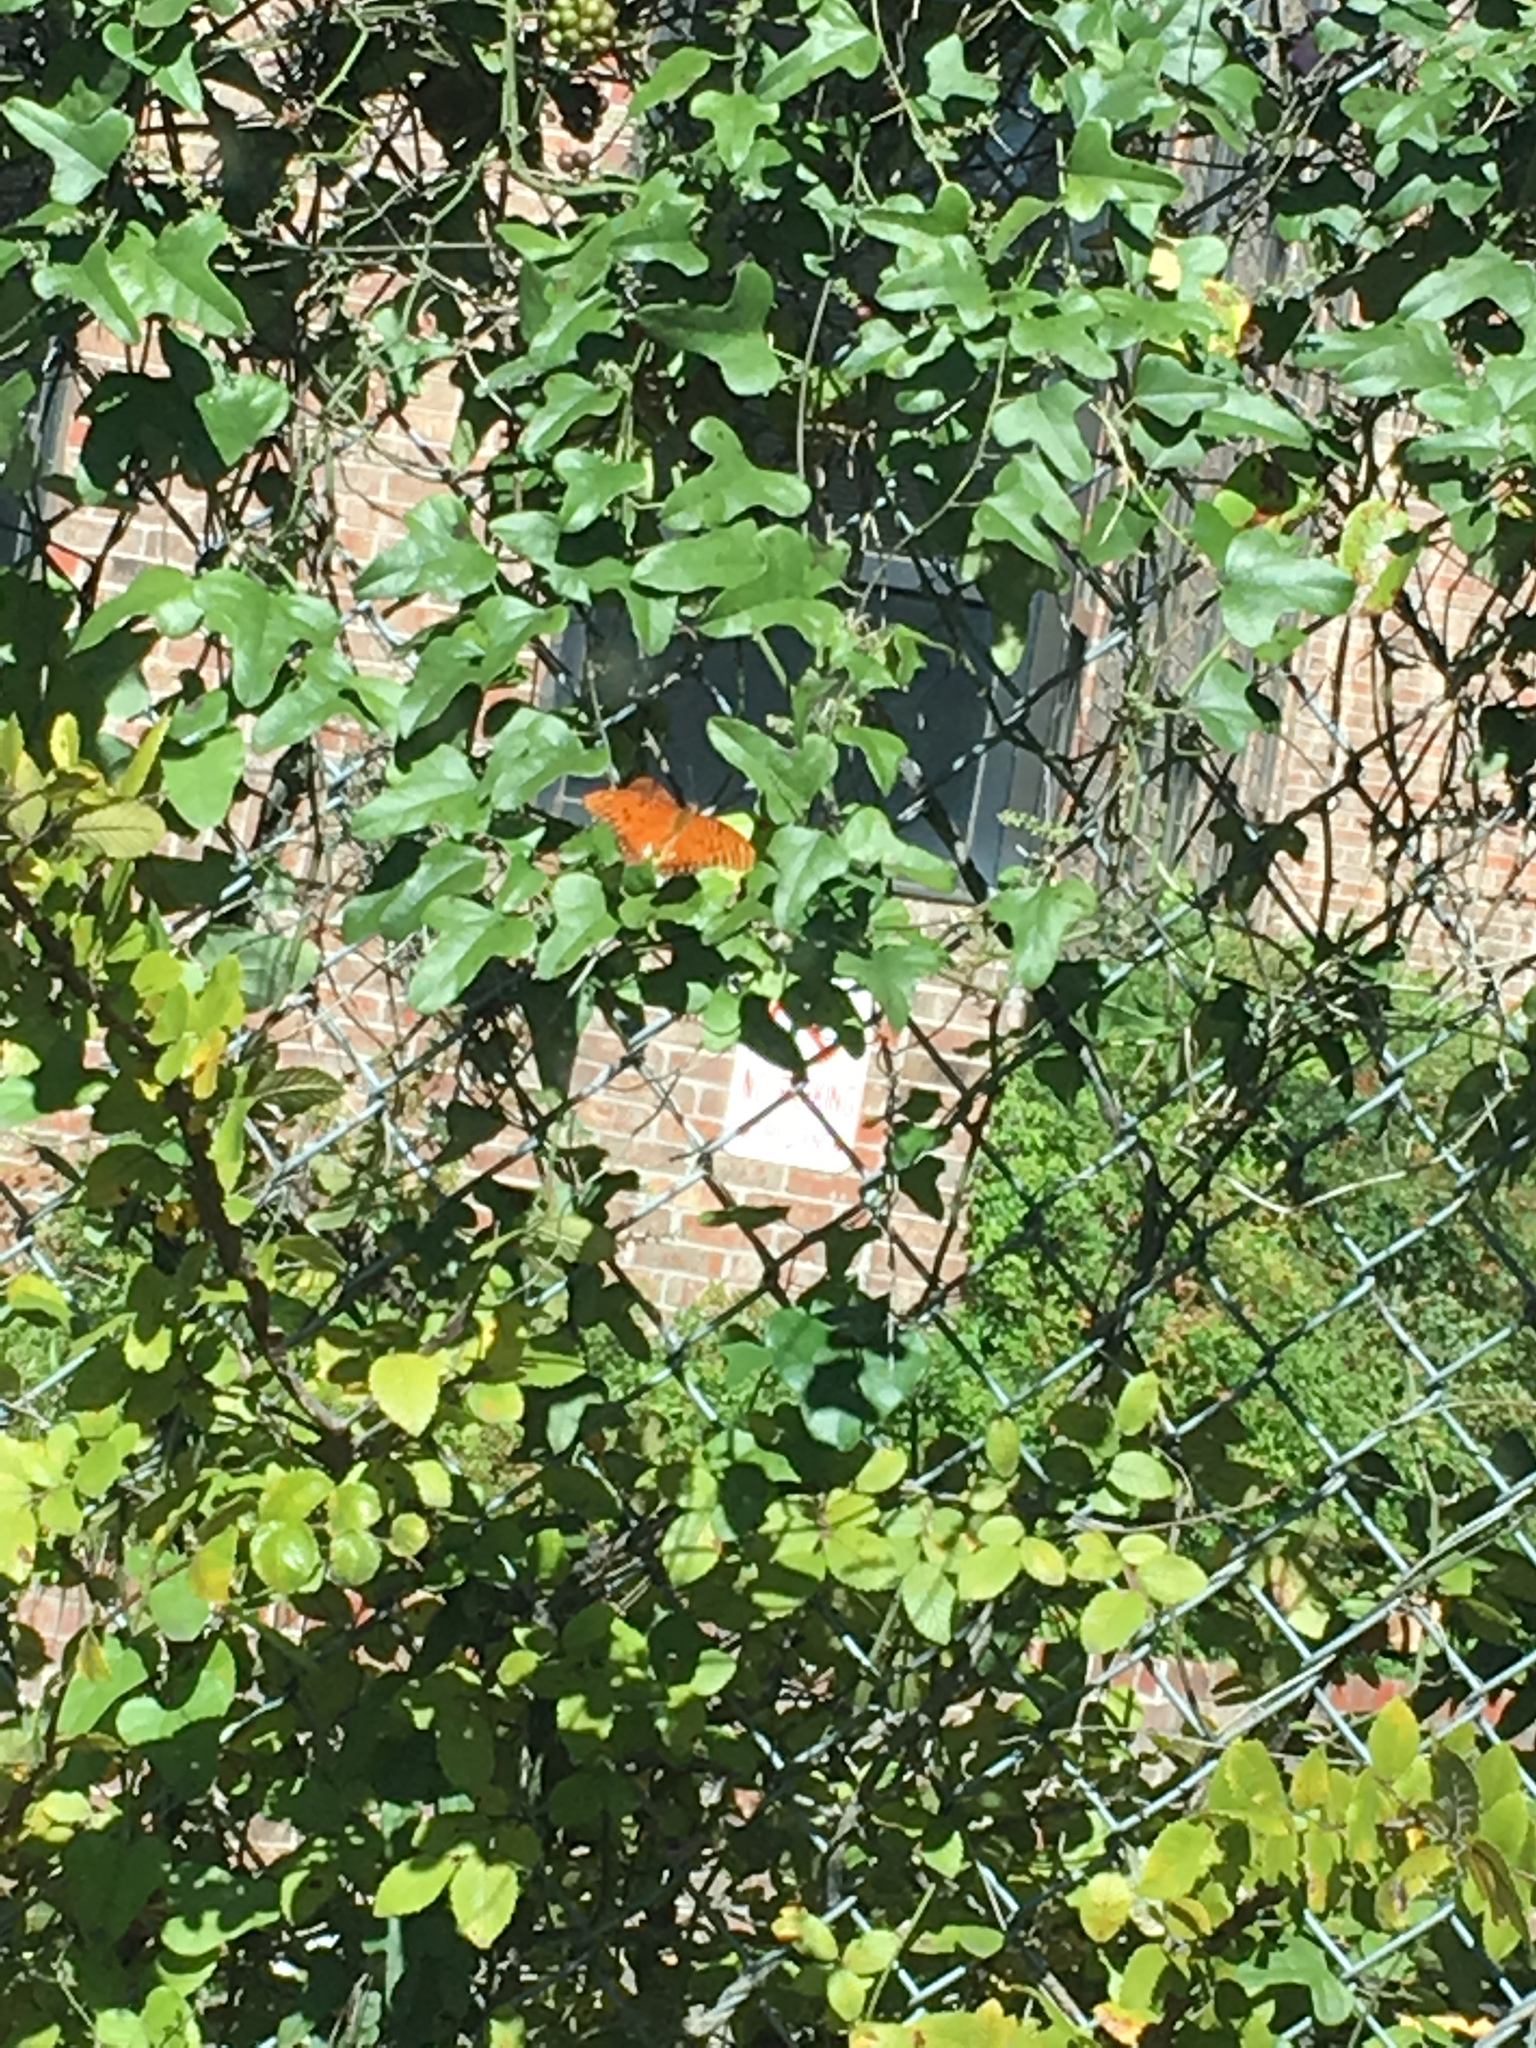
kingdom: Animalia
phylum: Arthropoda
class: Insecta
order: Lepidoptera
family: Nymphalidae
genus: Dione
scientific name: Dione vanillae
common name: Gulf fritillary
